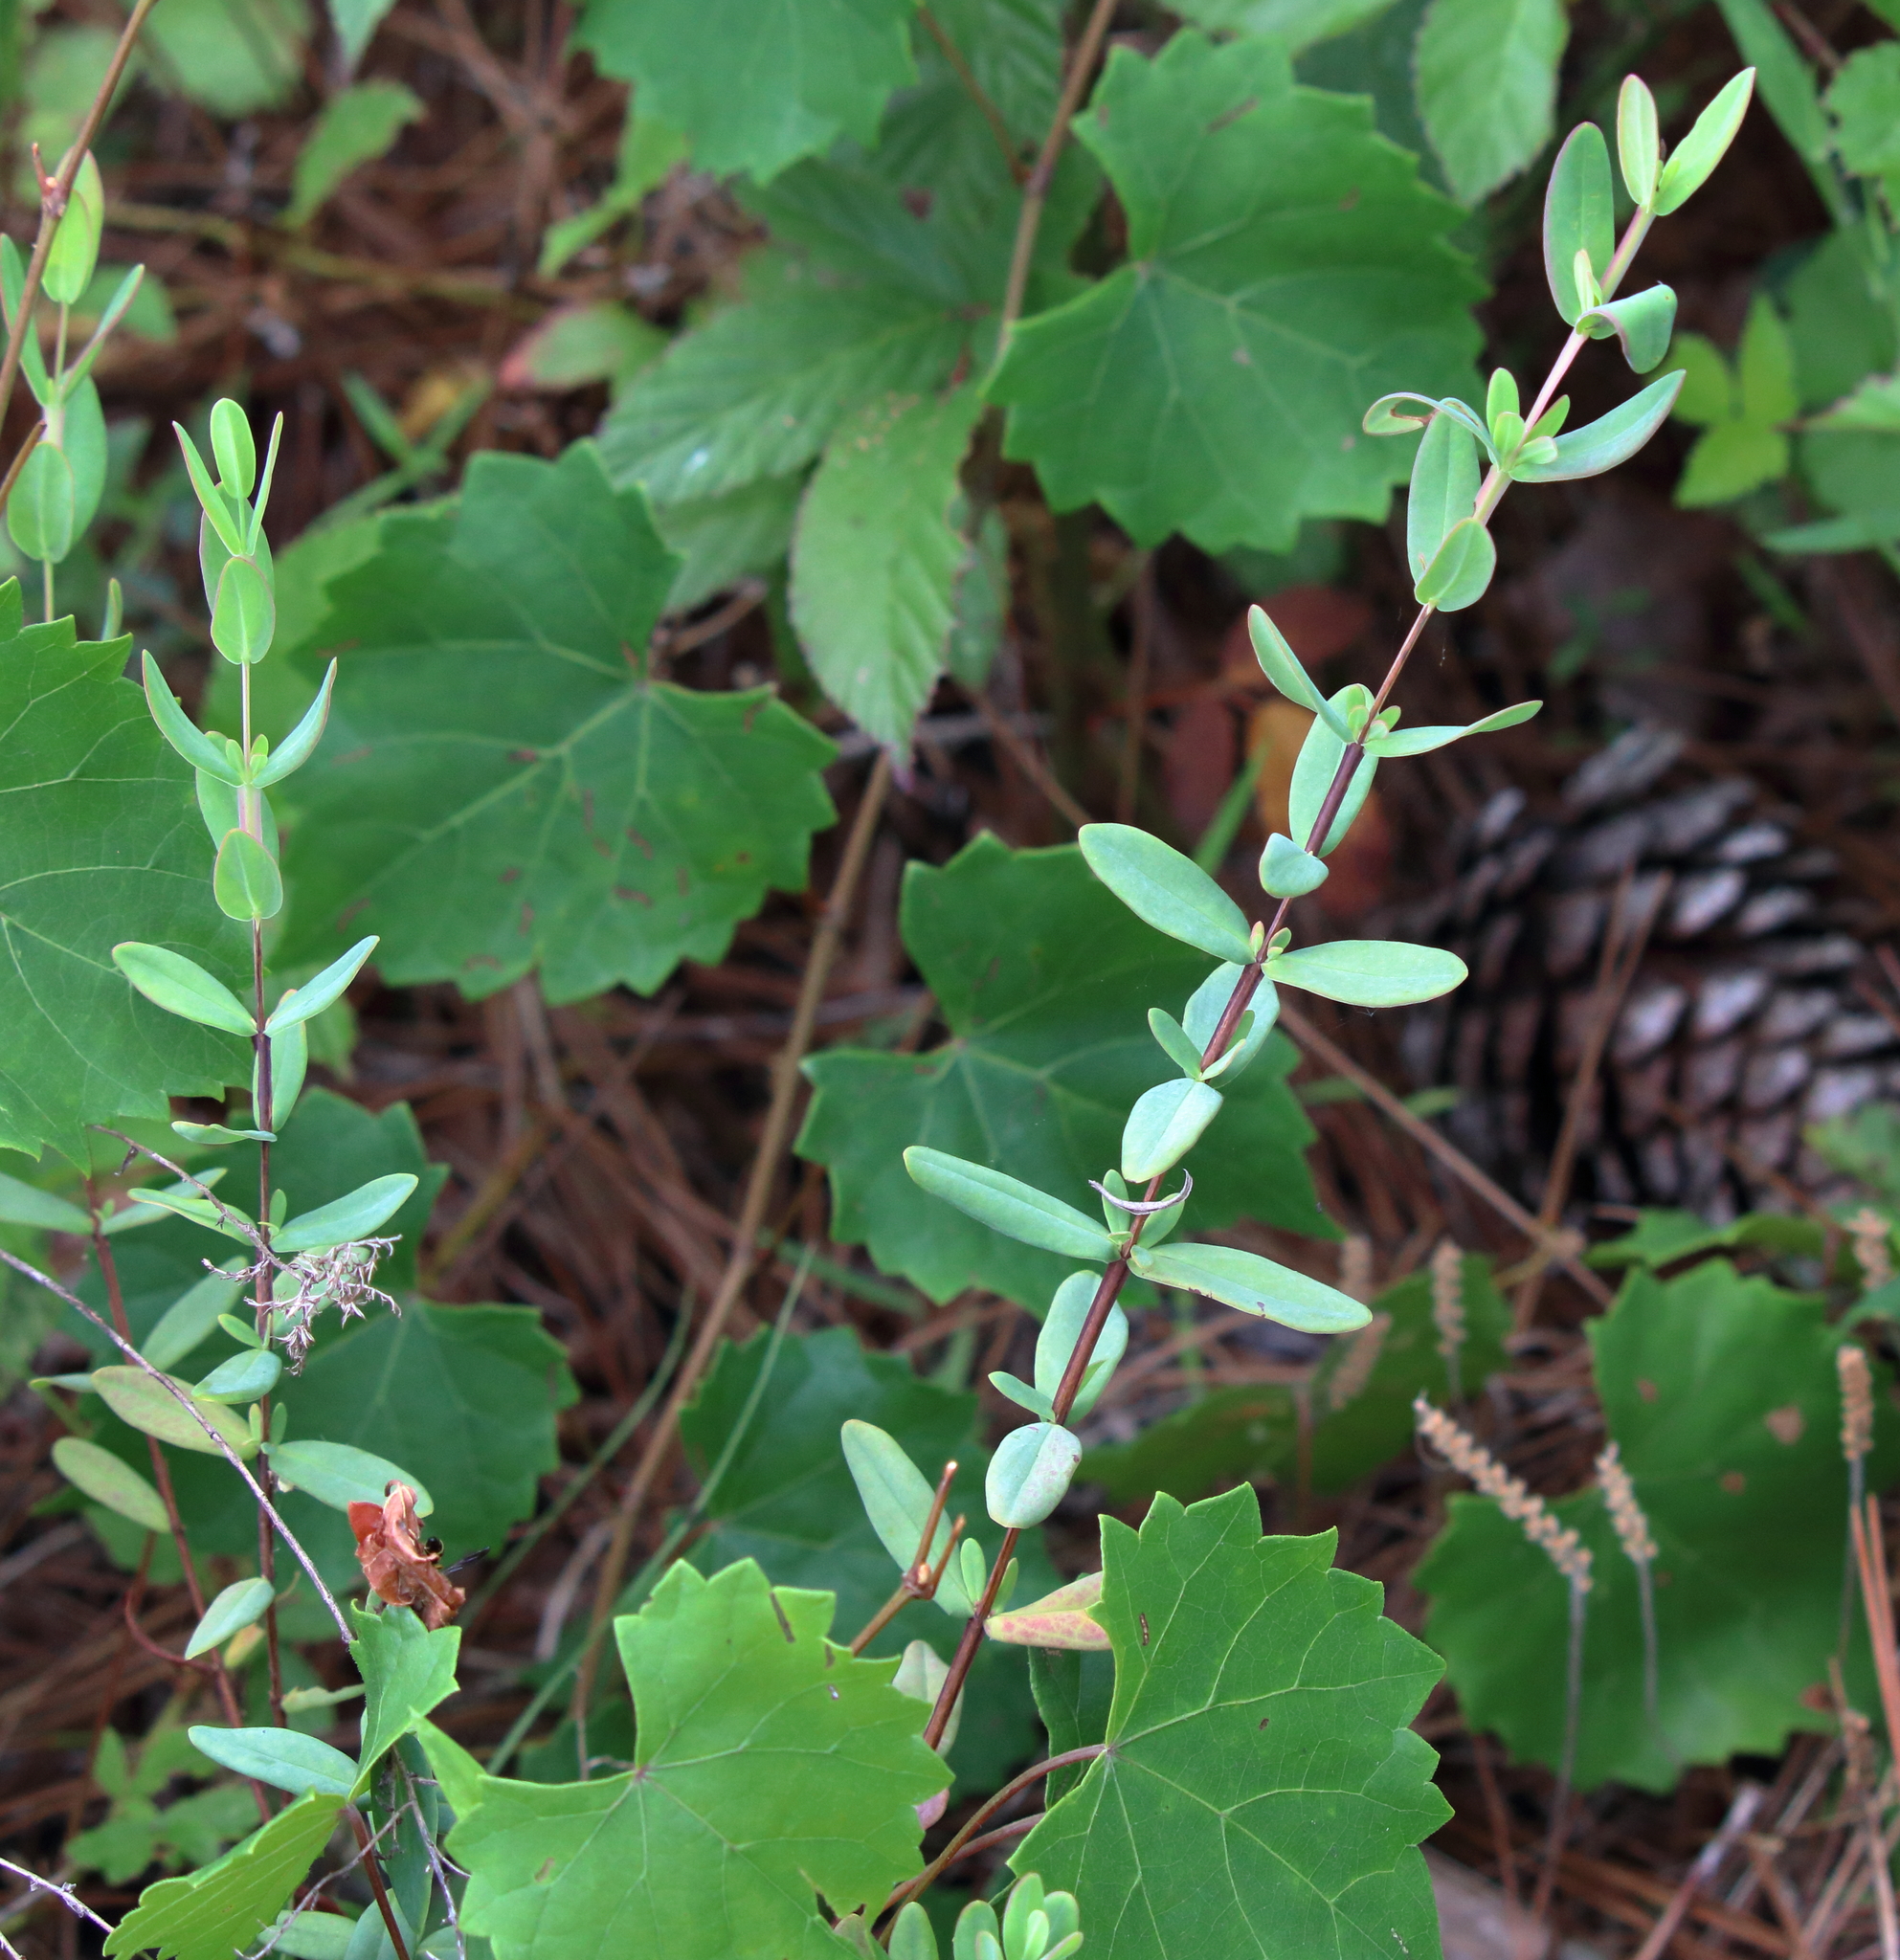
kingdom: Plantae
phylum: Tracheophyta
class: Magnoliopsida
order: Malpighiales
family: Hypericaceae
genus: Hypericum
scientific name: Hypericum crux-andreae
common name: St.-peter's-wort
